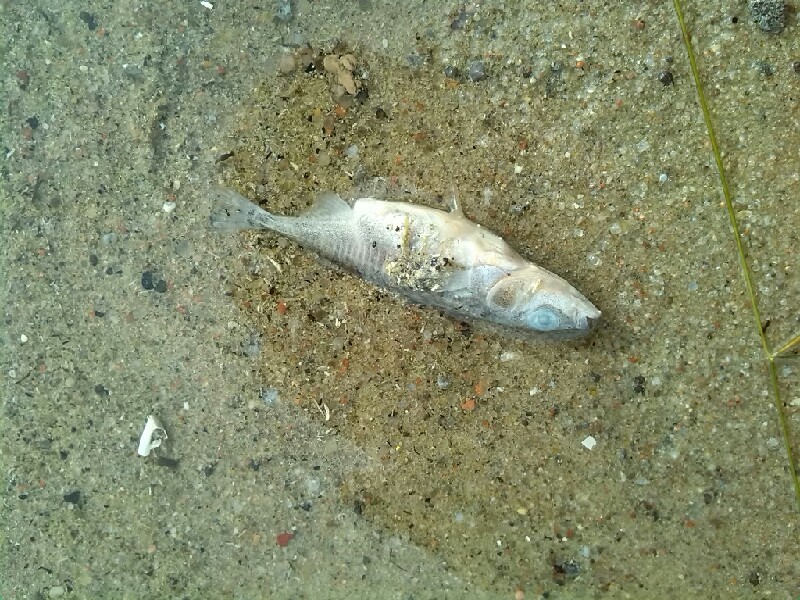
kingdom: Animalia
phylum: Chordata
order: Gasterosteiformes
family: Gasterosteidae
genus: Gasterosteus
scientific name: Gasterosteus aculeatus
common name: Three-spined stickleback
